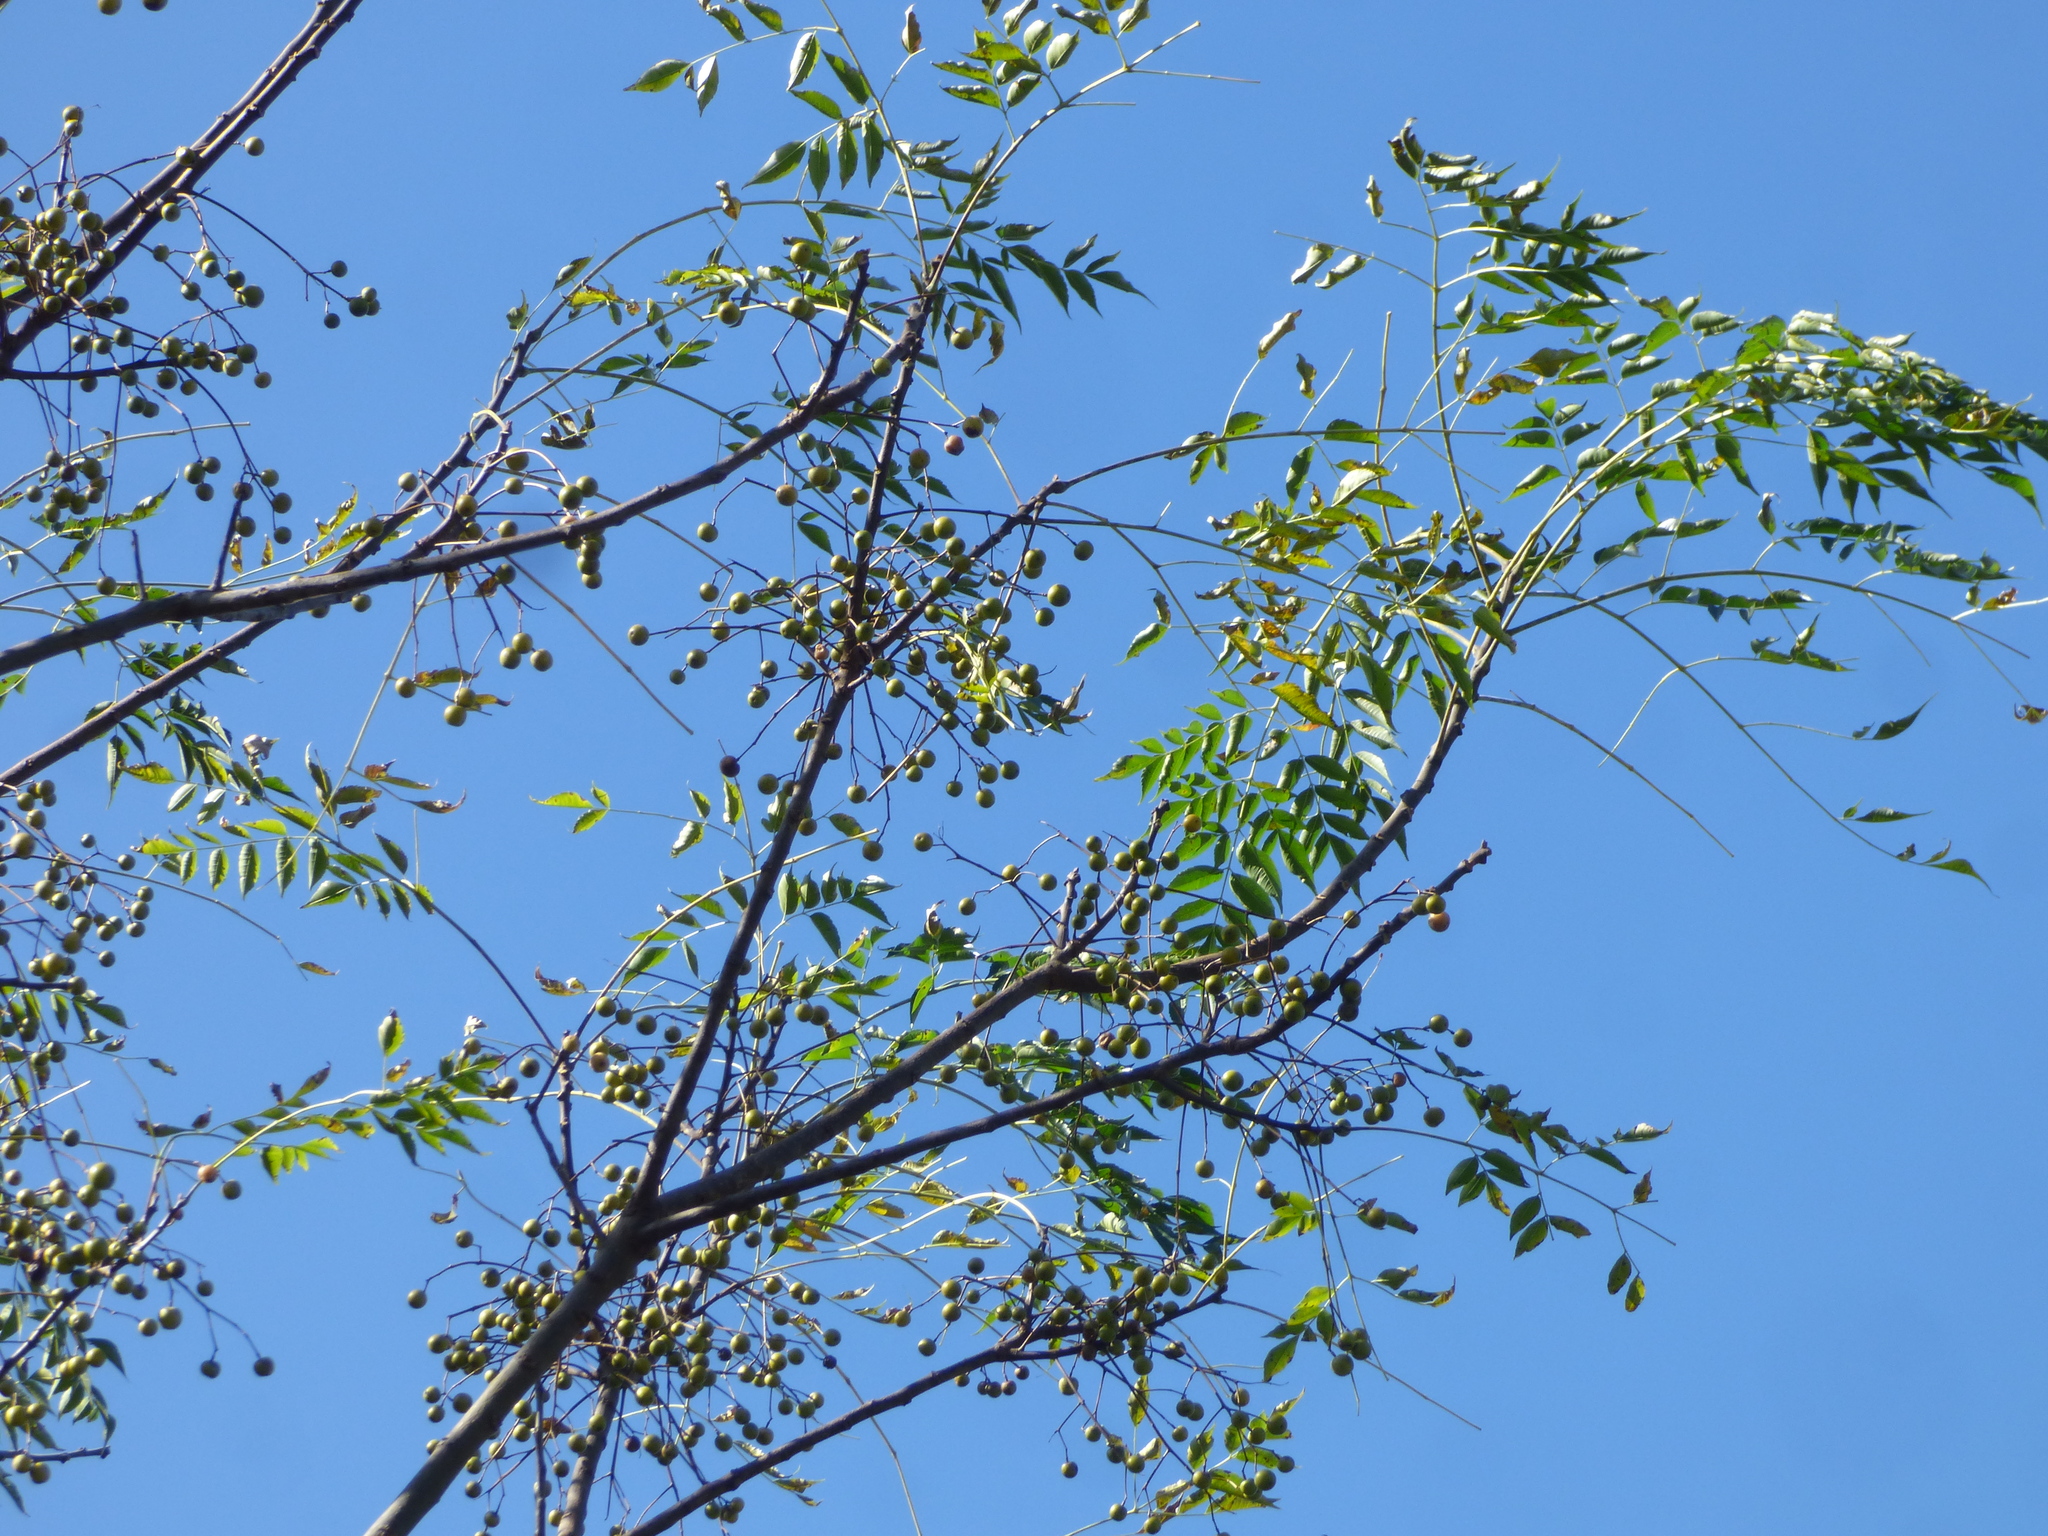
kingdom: Plantae
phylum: Tracheophyta
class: Magnoliopsida
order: Sapindales
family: Meliaceae
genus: Melia
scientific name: Melia azedarach
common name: Chinaberrytree
